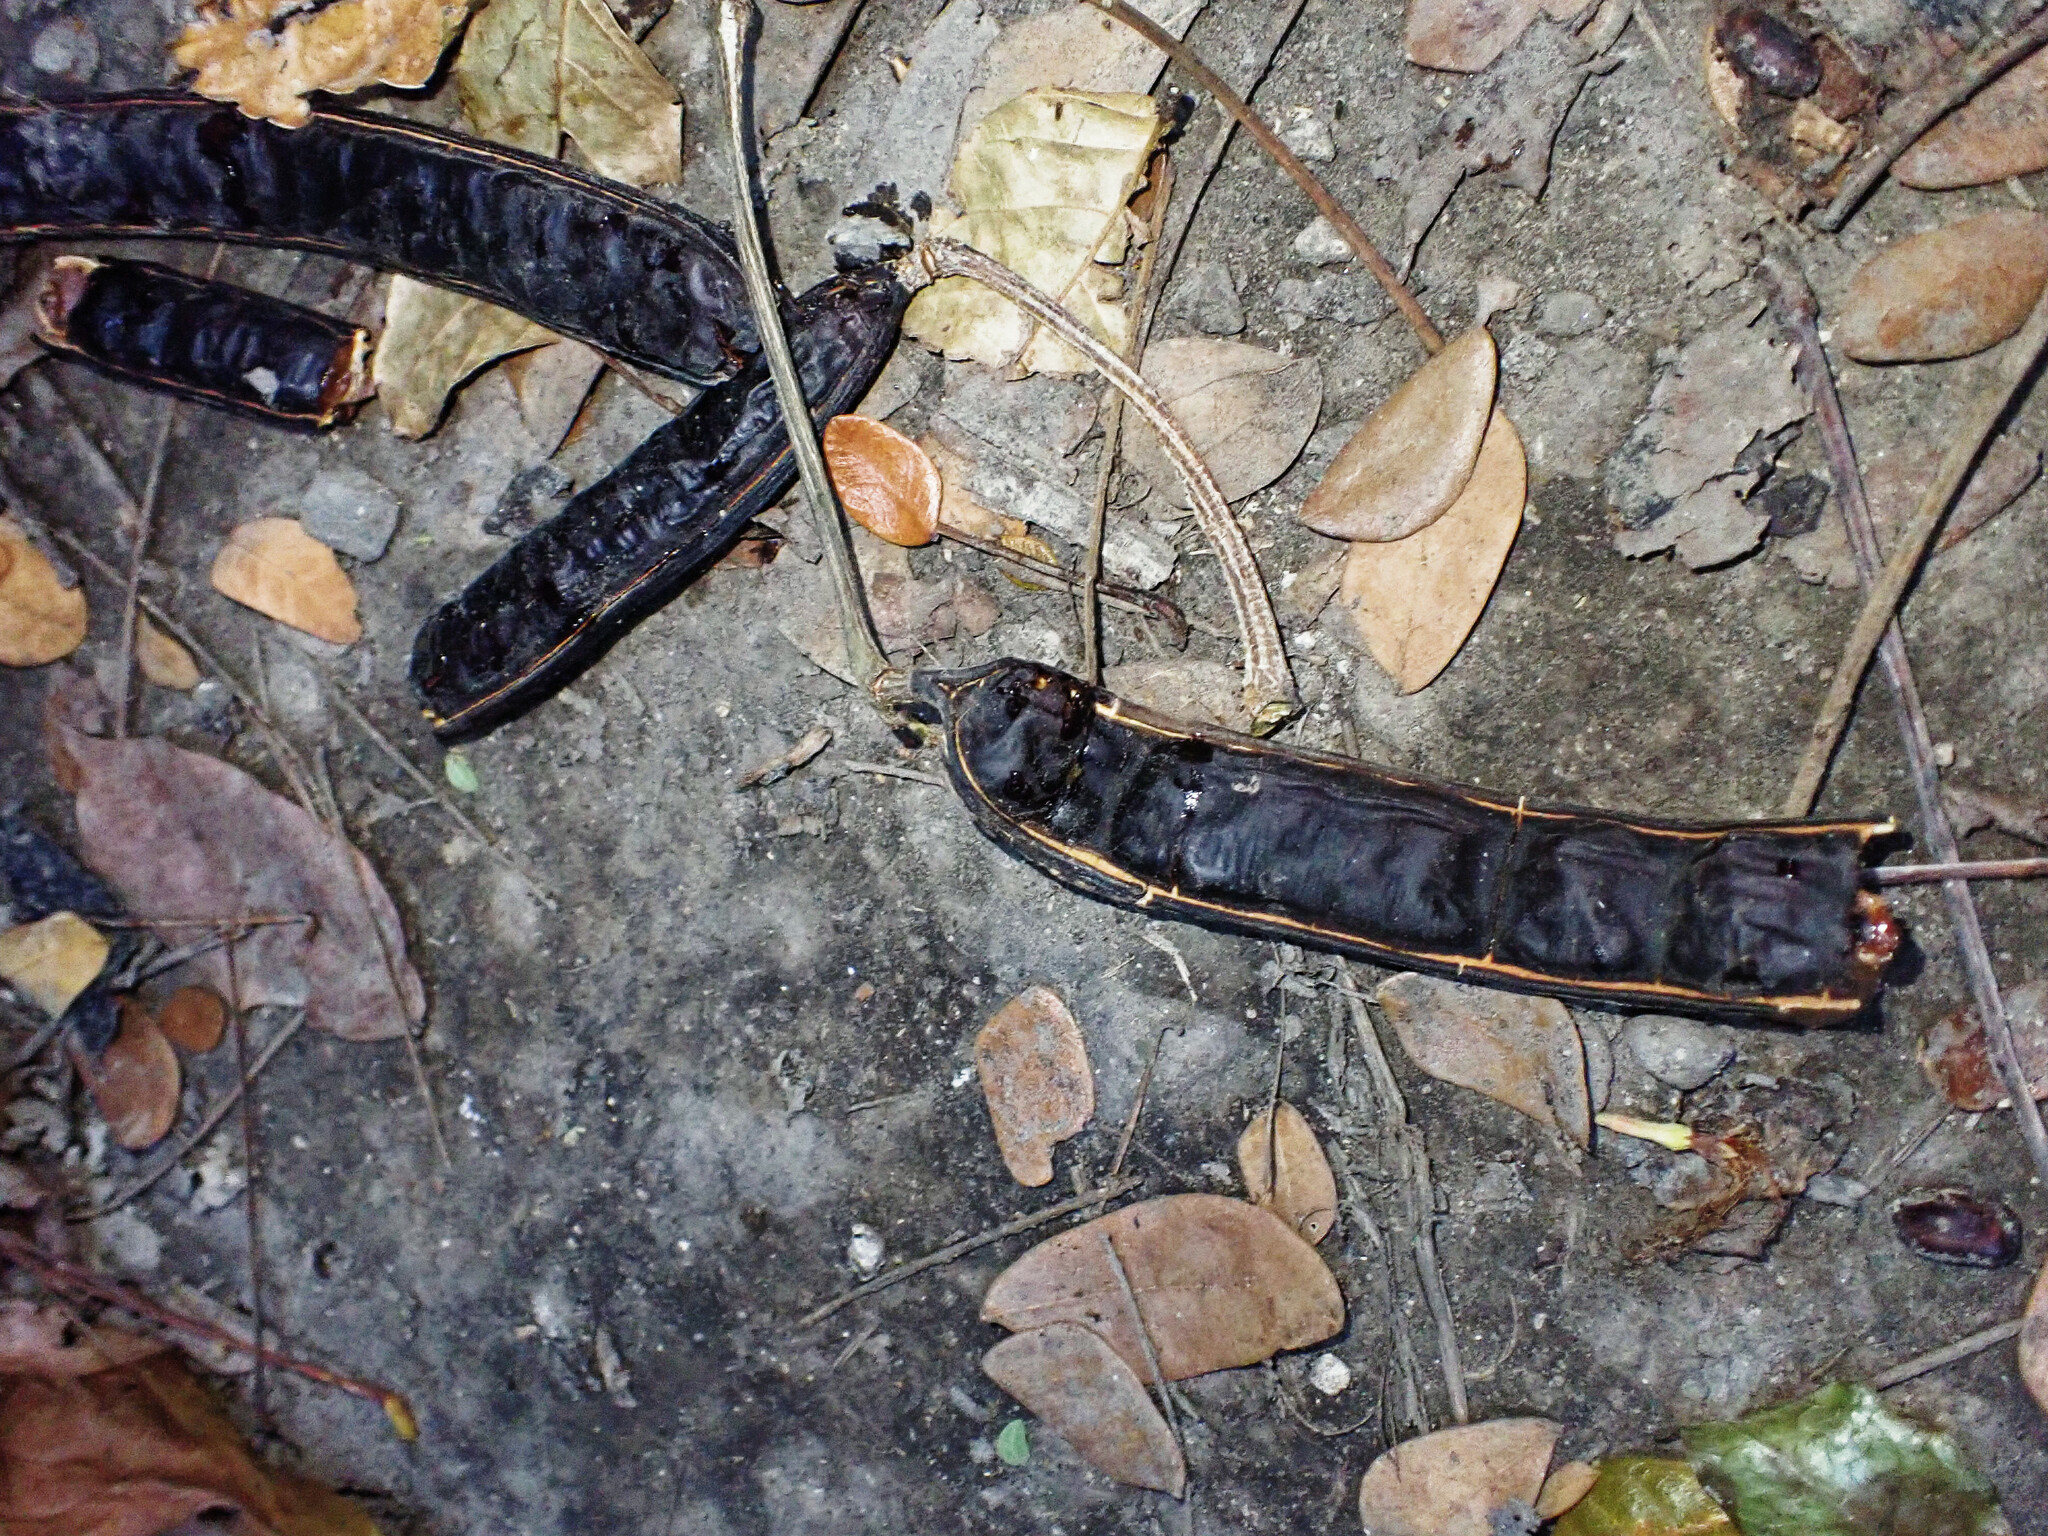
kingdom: Plantae
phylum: Tracheophyta
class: Magnoliopsida
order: Fabales
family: Fabaceae
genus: Samanea
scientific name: Samanea saman
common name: Raintree
